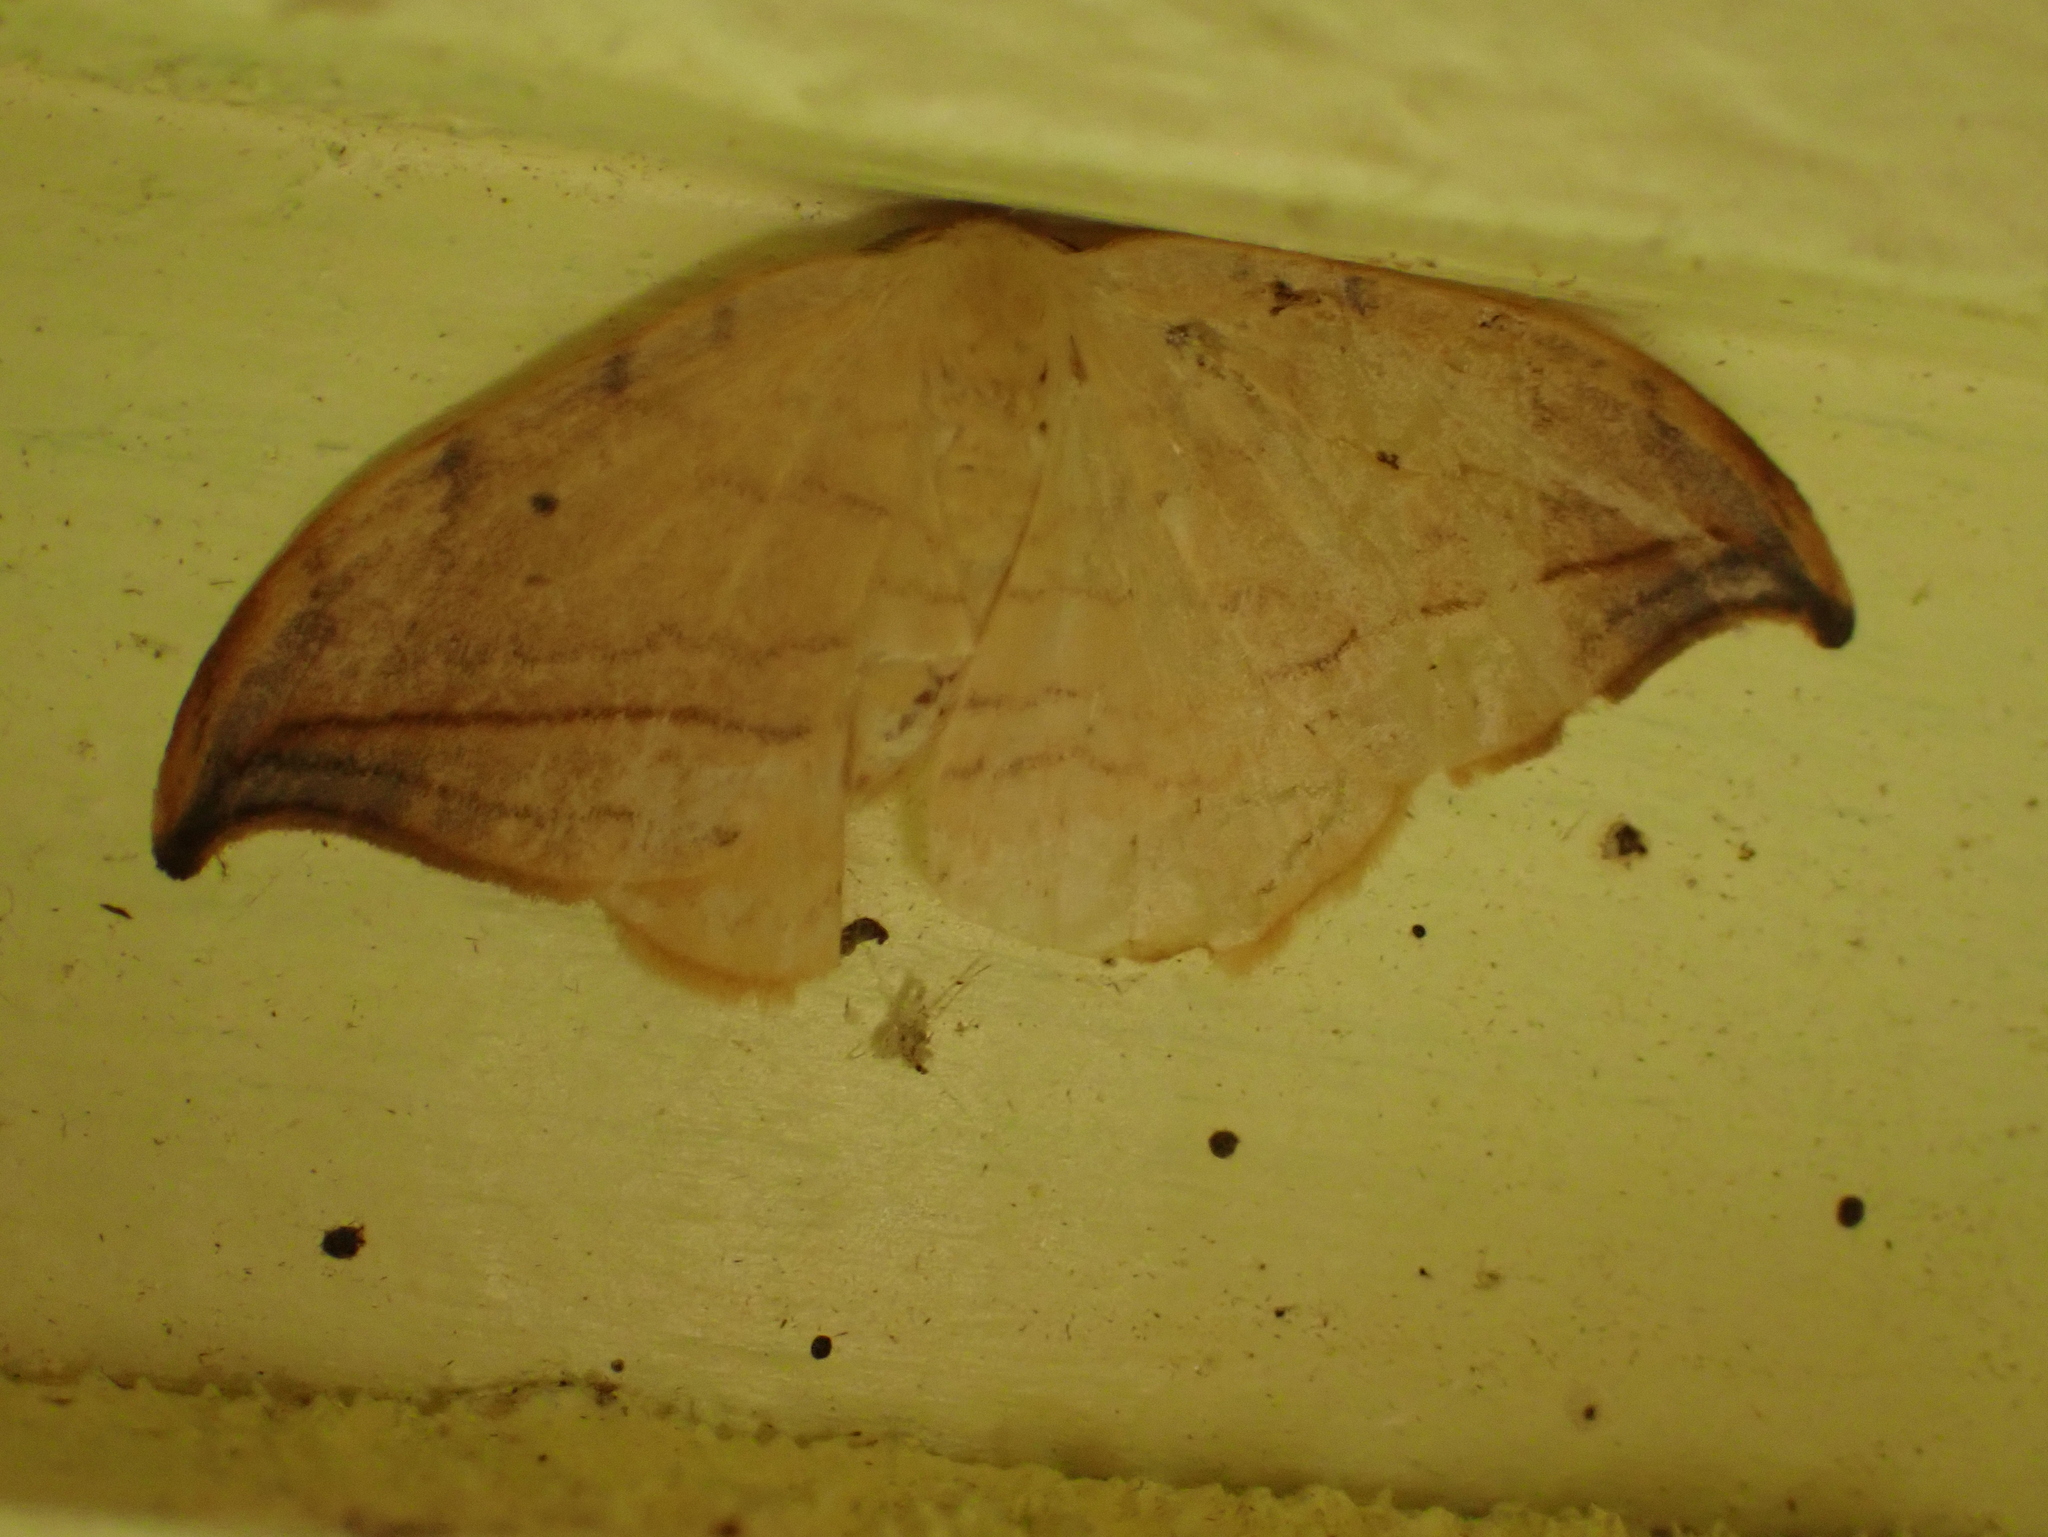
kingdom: Animalia
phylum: Arthropoda
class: Insecta
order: Lepidoptera
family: Drepanidae
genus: Drepana
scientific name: Drepana arcuata
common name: Arched hooktip moth
